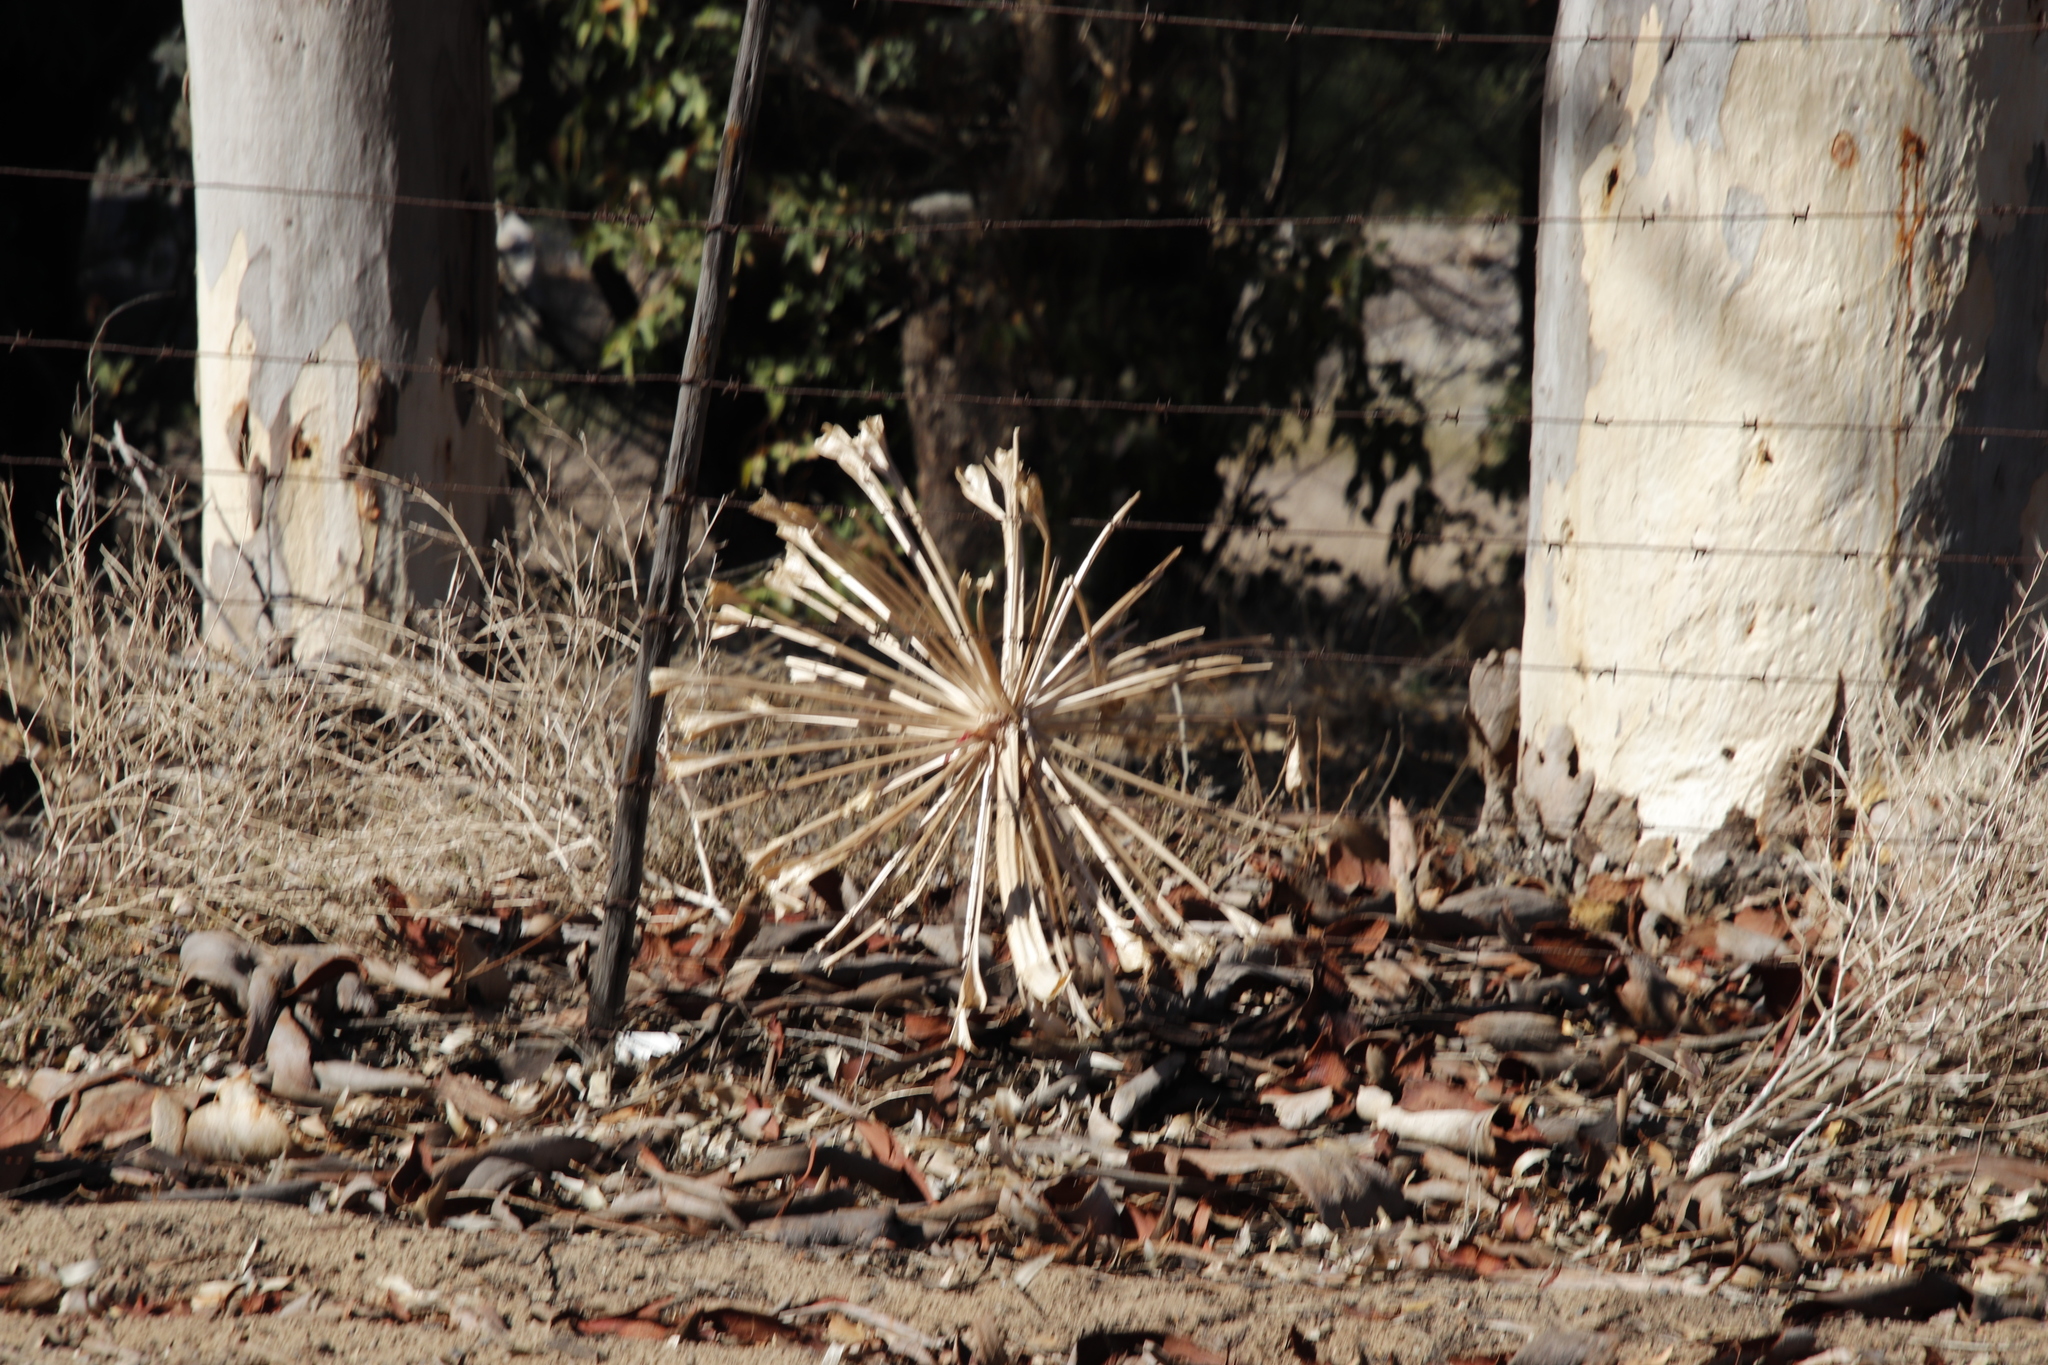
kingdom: Plantae
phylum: Tracheophyta
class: Liliopsida
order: Asparagales
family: Amaryllidaceae
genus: Brunsvigia
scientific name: Brunsvigia orientalis
